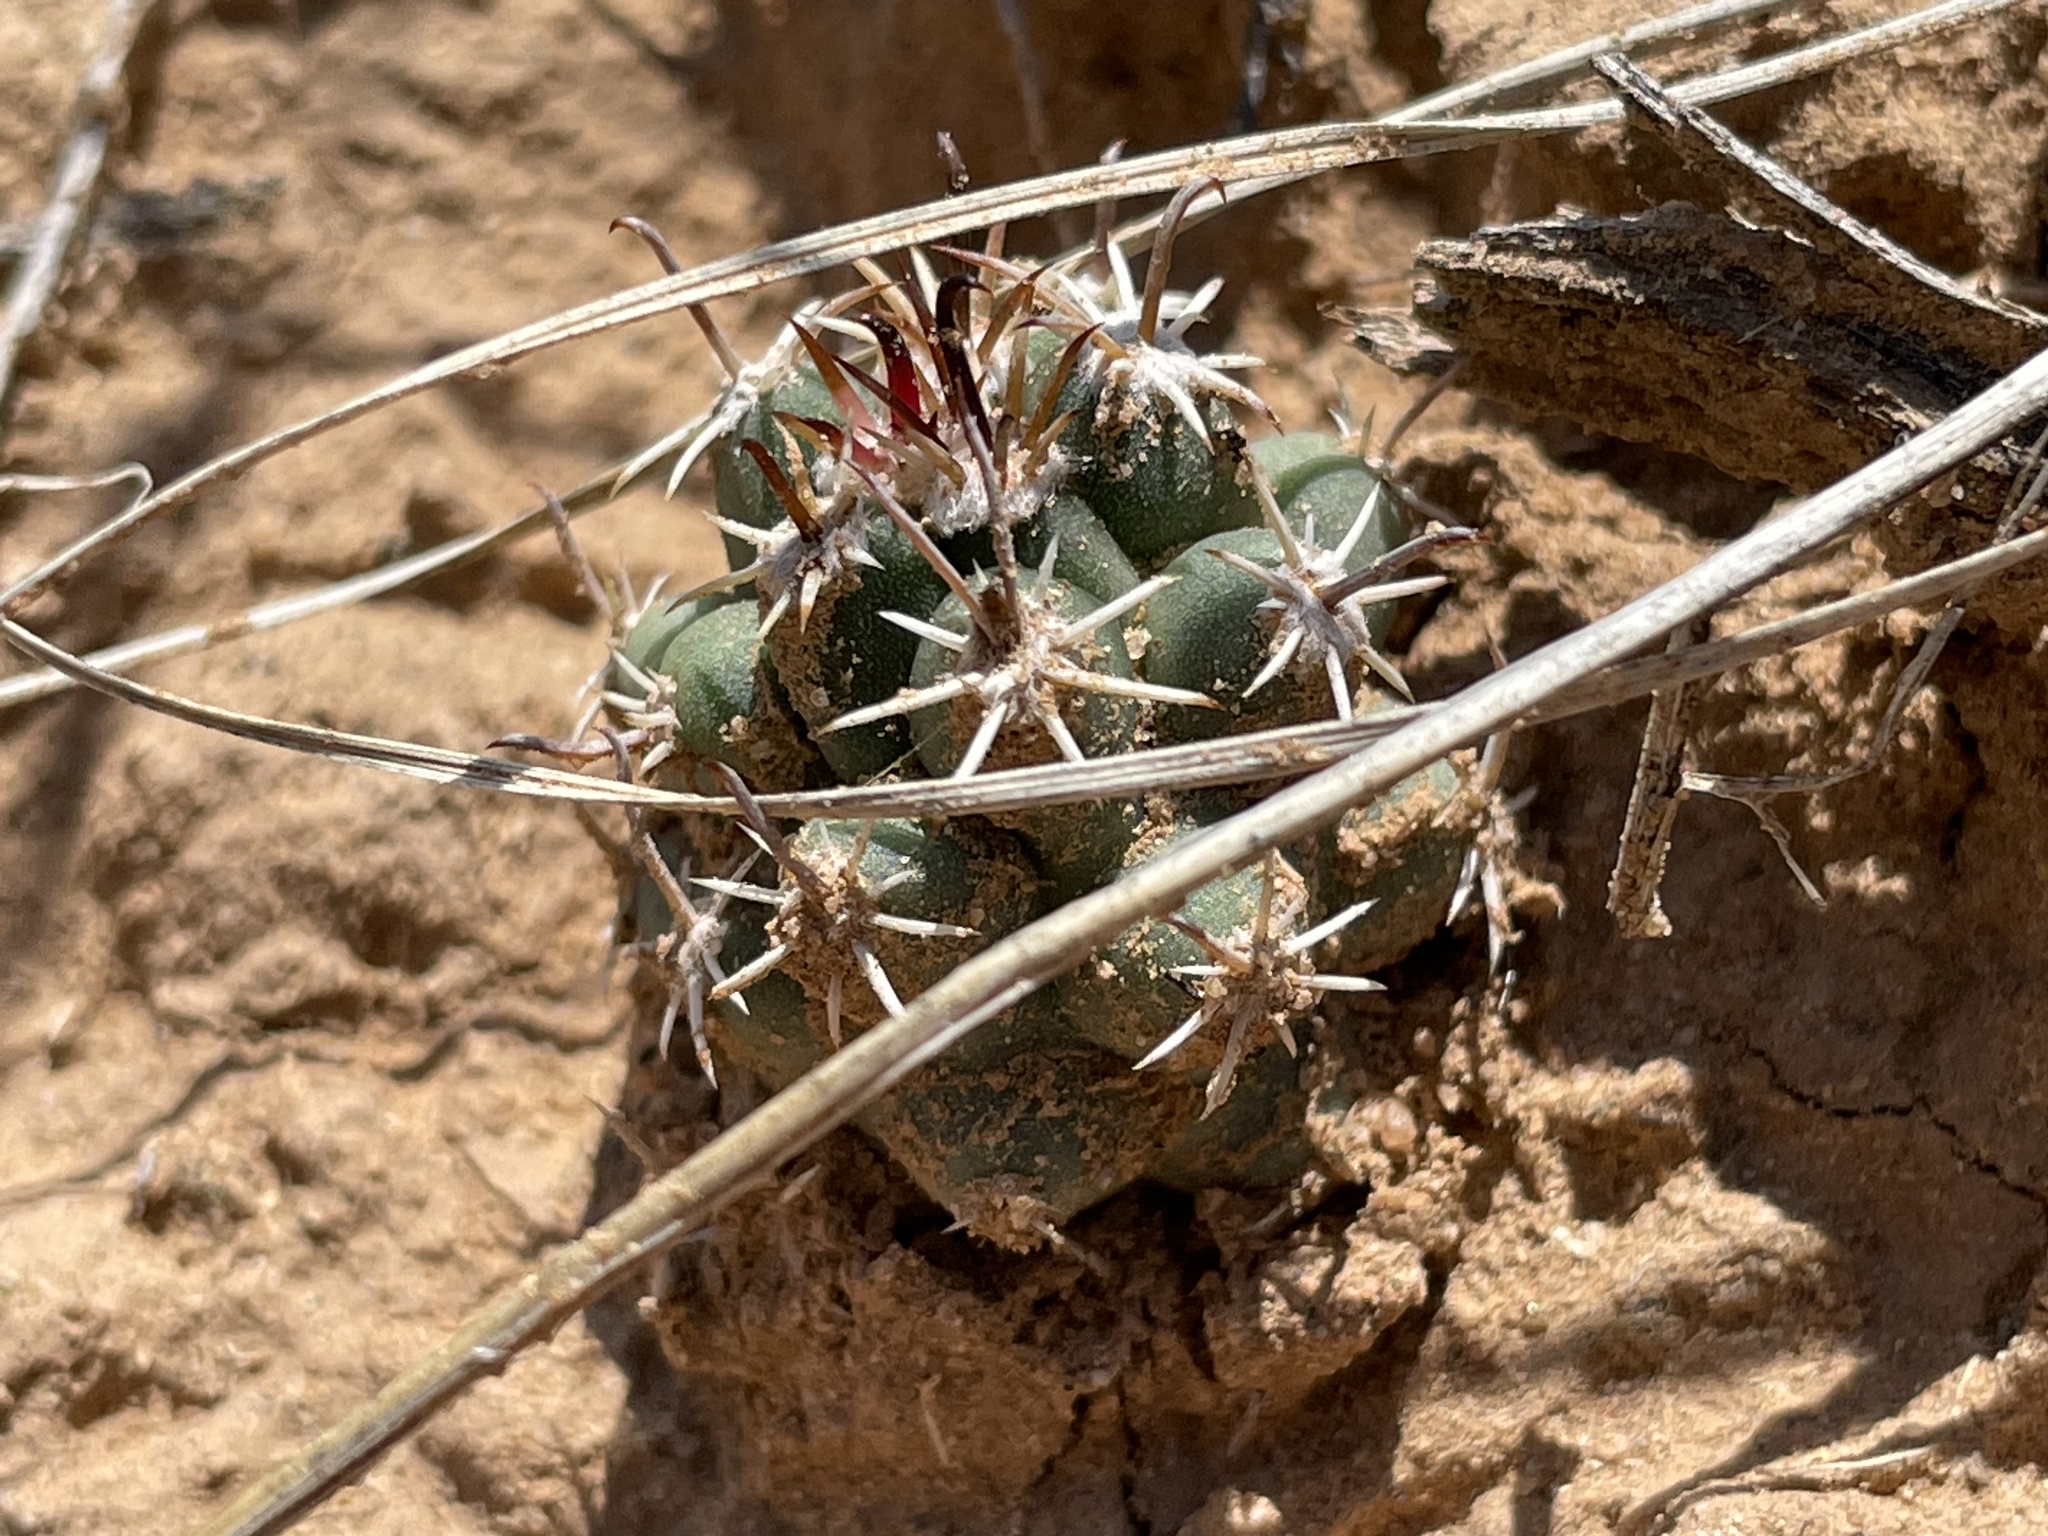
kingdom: Plantae
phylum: Tracheophyta
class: Magnoliopsida
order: Caryophyllales
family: Cactaceae
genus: Sclerocactus
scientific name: Sclerocactus cloverae
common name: Clover's eagle-claw cactus
